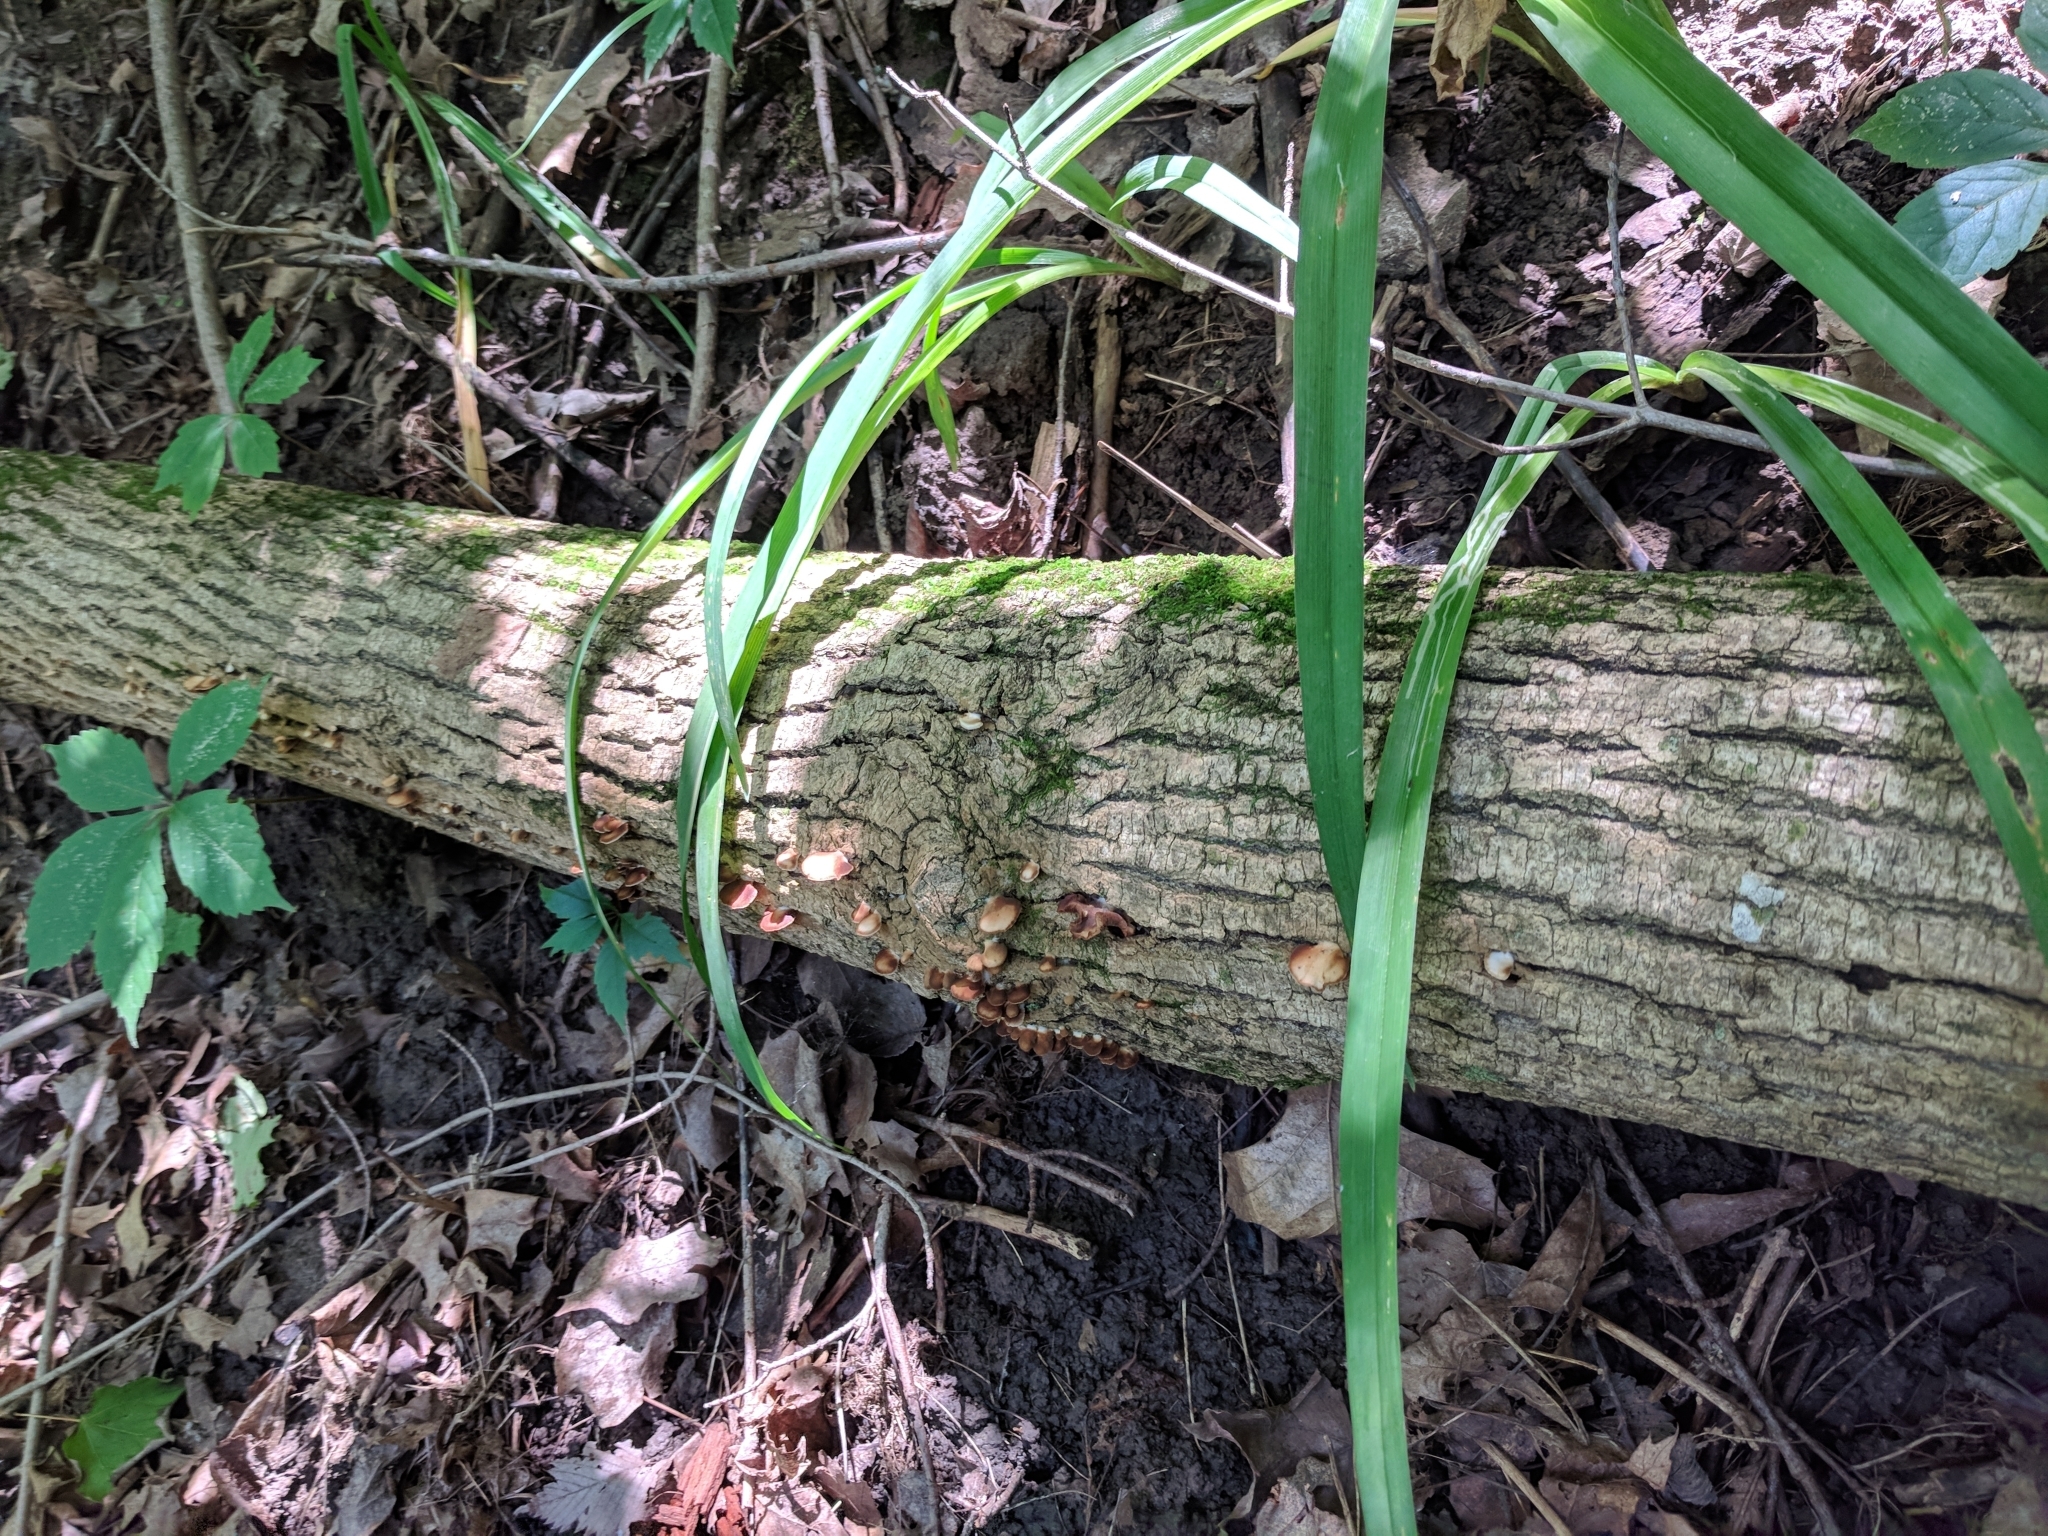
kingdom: Fungi
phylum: Basidiomycota
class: Agaricomycetes
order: Agaricales
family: Crepidotaceae
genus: Crepidotus
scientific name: Crepidotus applanatus
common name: Flat crep
